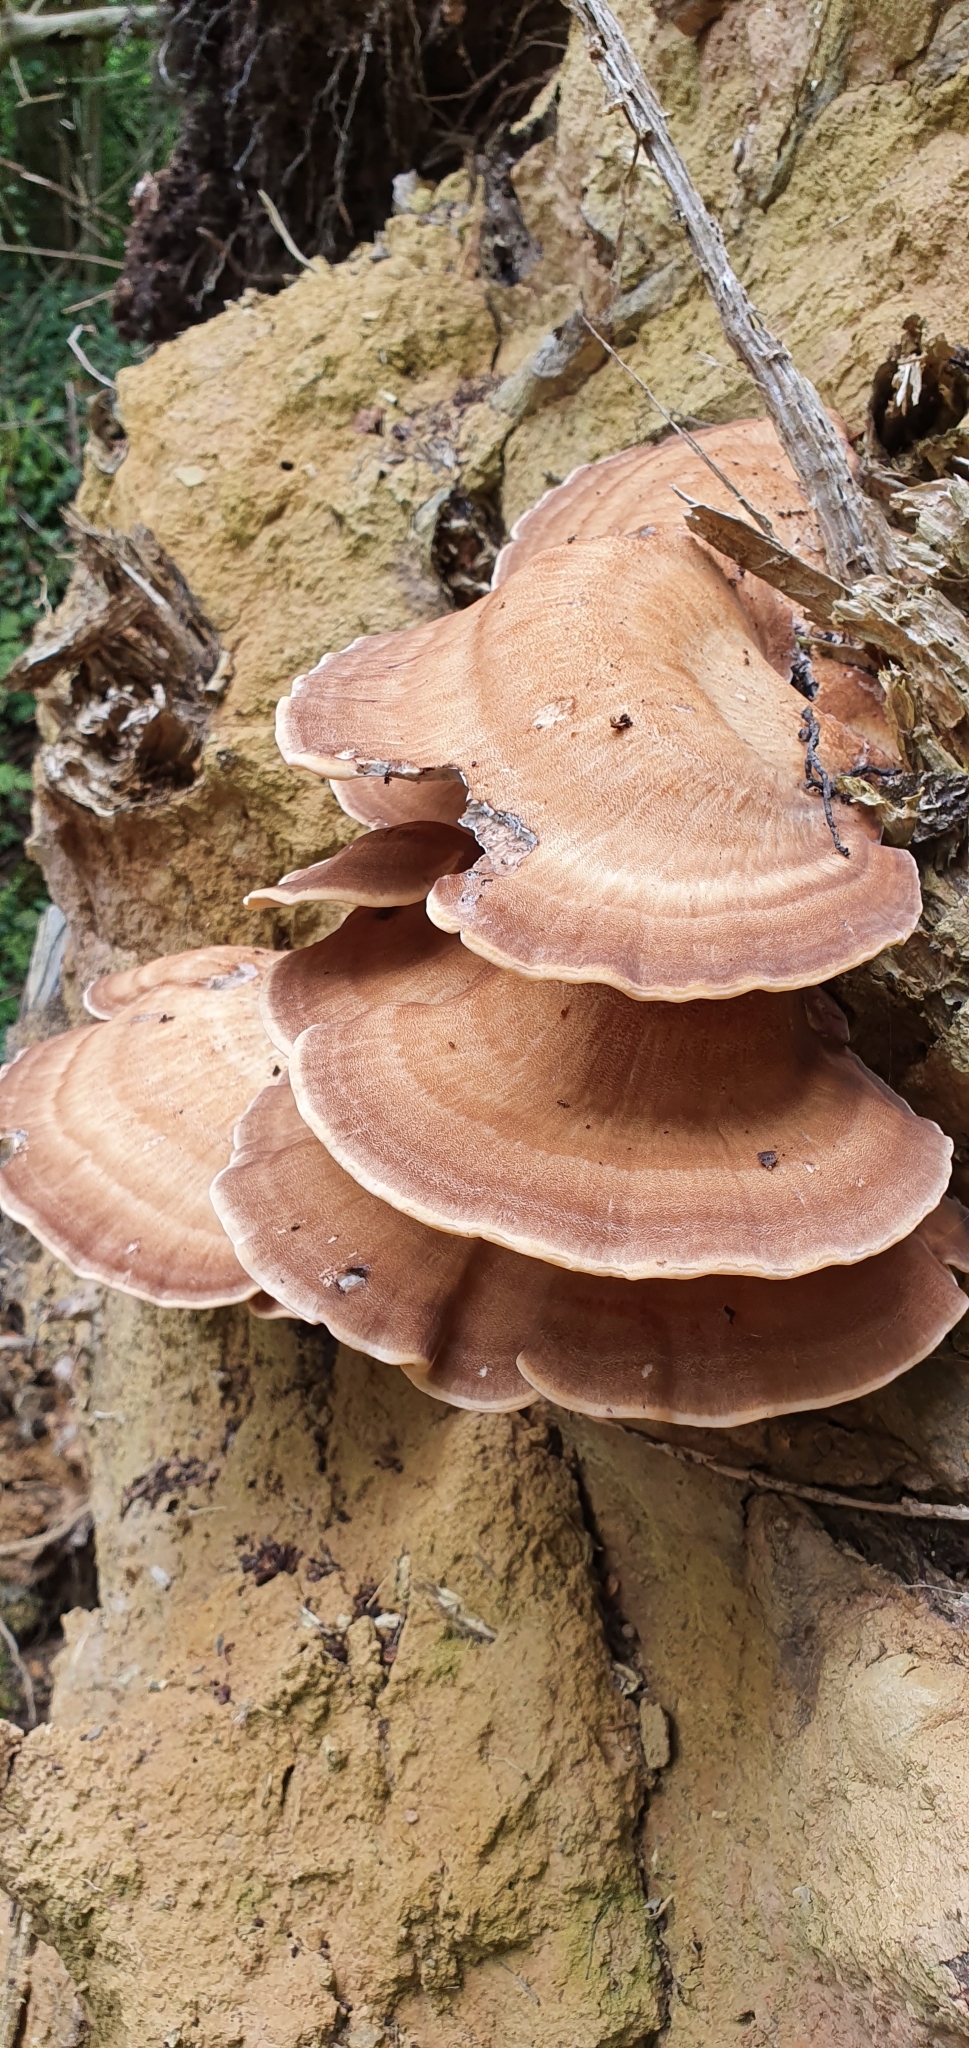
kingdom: Fungi
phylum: Basidiomycota
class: Agaricomycetes
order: Polyporales
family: Meripilaceae
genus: Meripilus
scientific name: Meripilus giganteus
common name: Giant polypore
